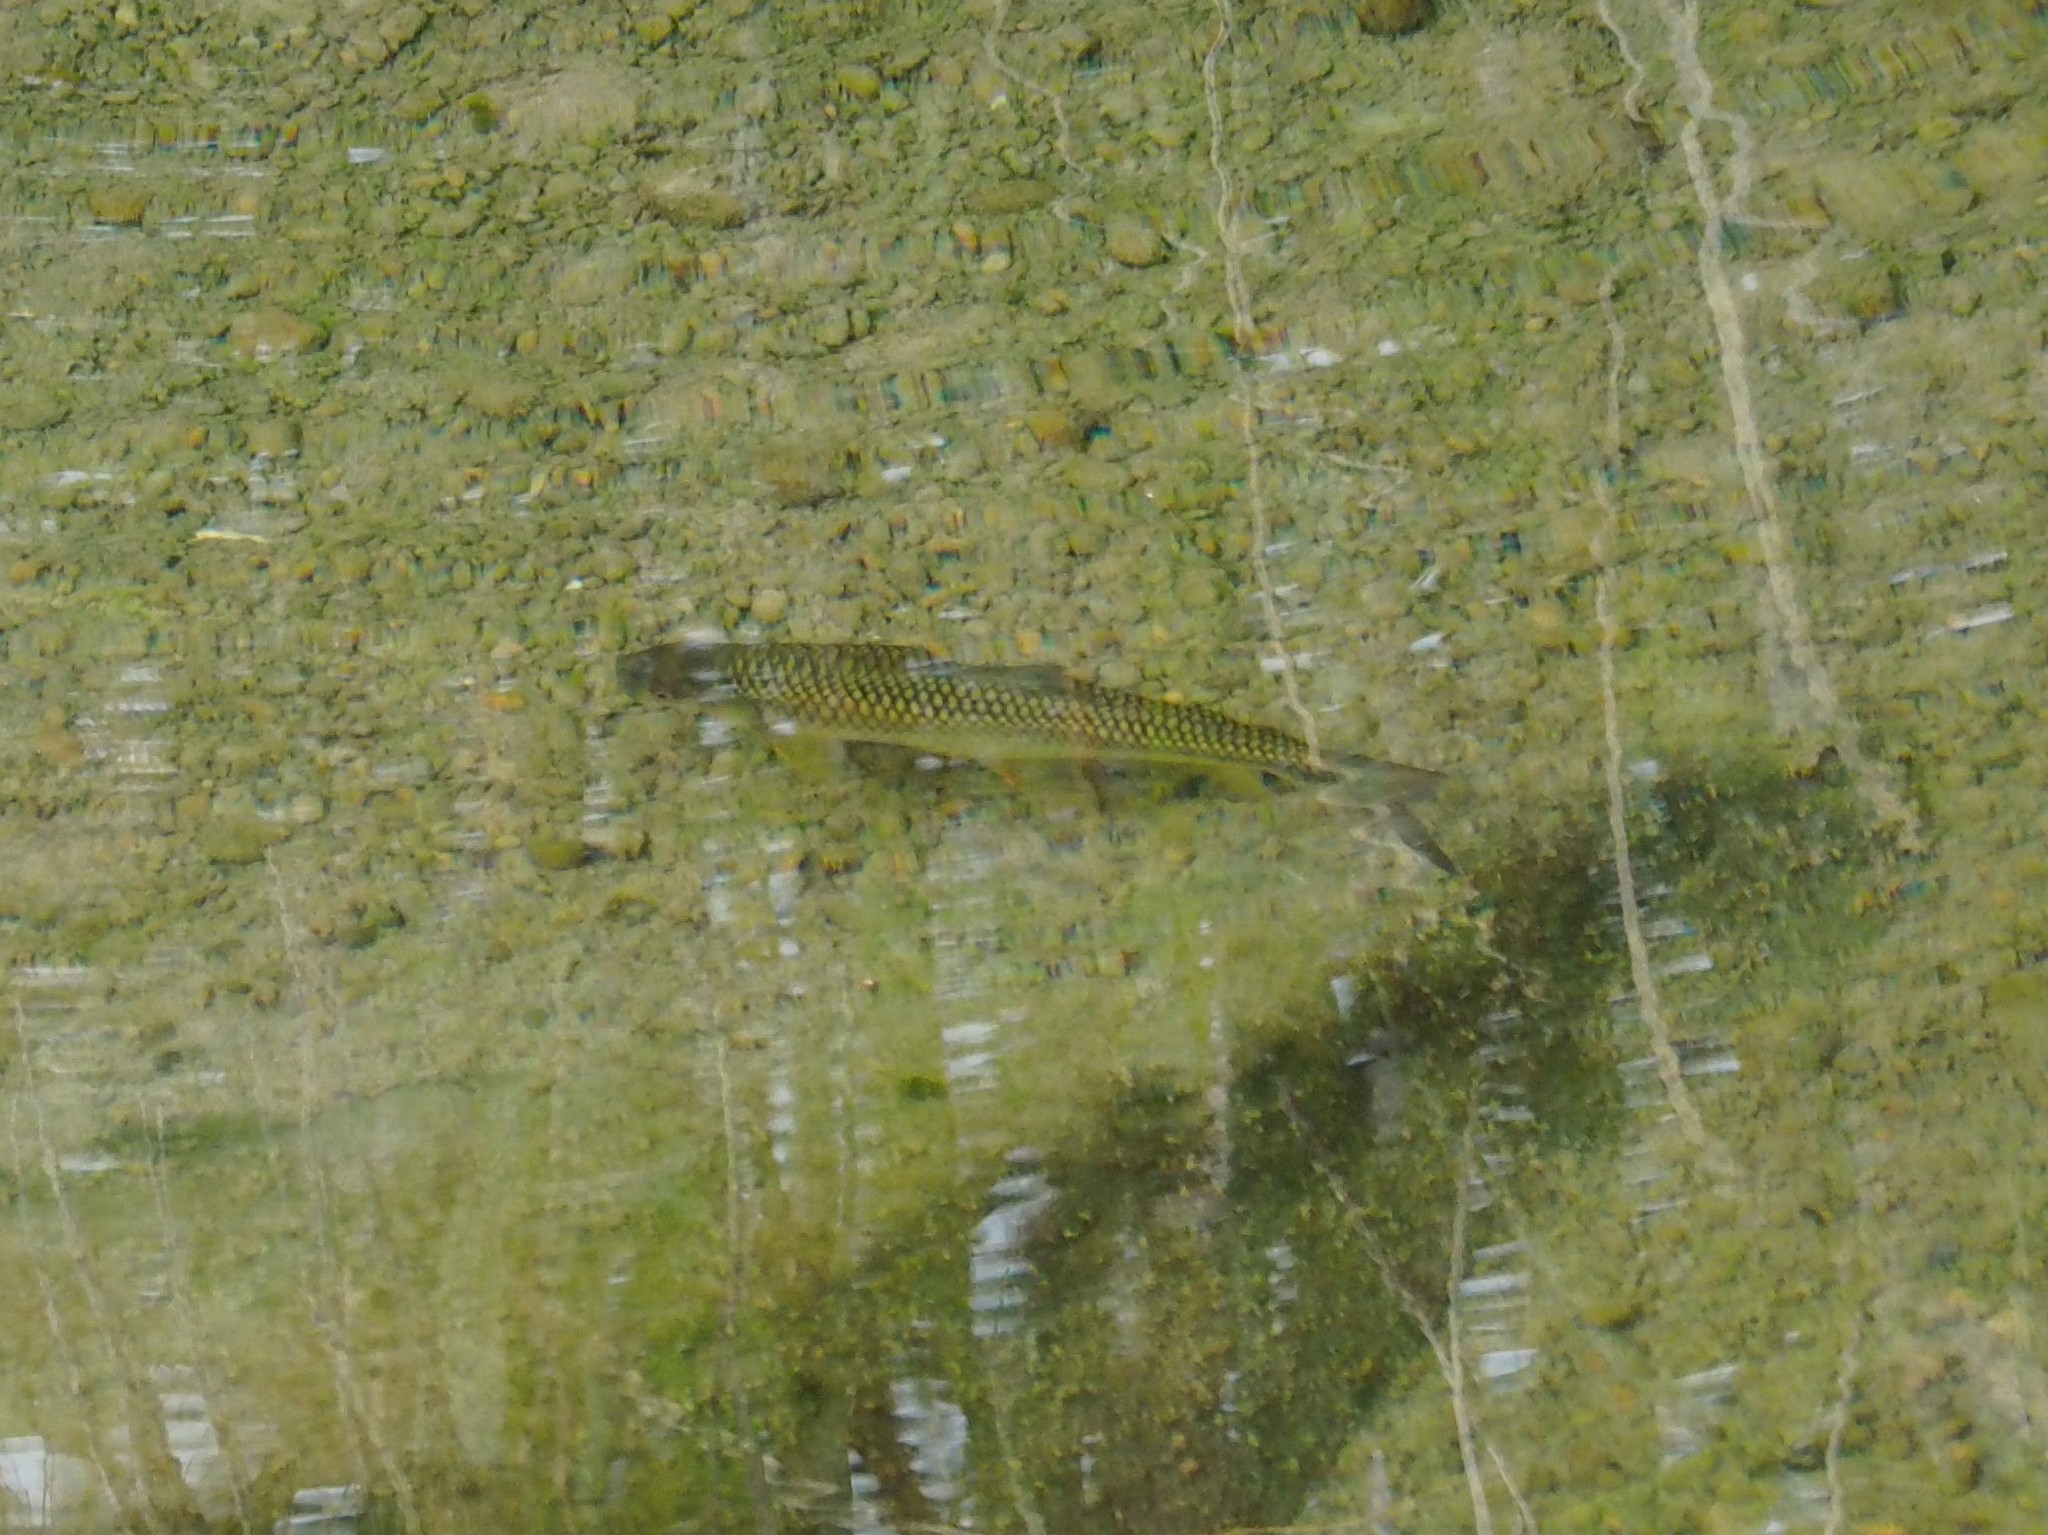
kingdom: Animalia
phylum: Chordata
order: Cypriniformes
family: Cyprinidae
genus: Onychostoma
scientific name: Onychostoma barbatulum
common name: Taiwan shoveljaw carp
